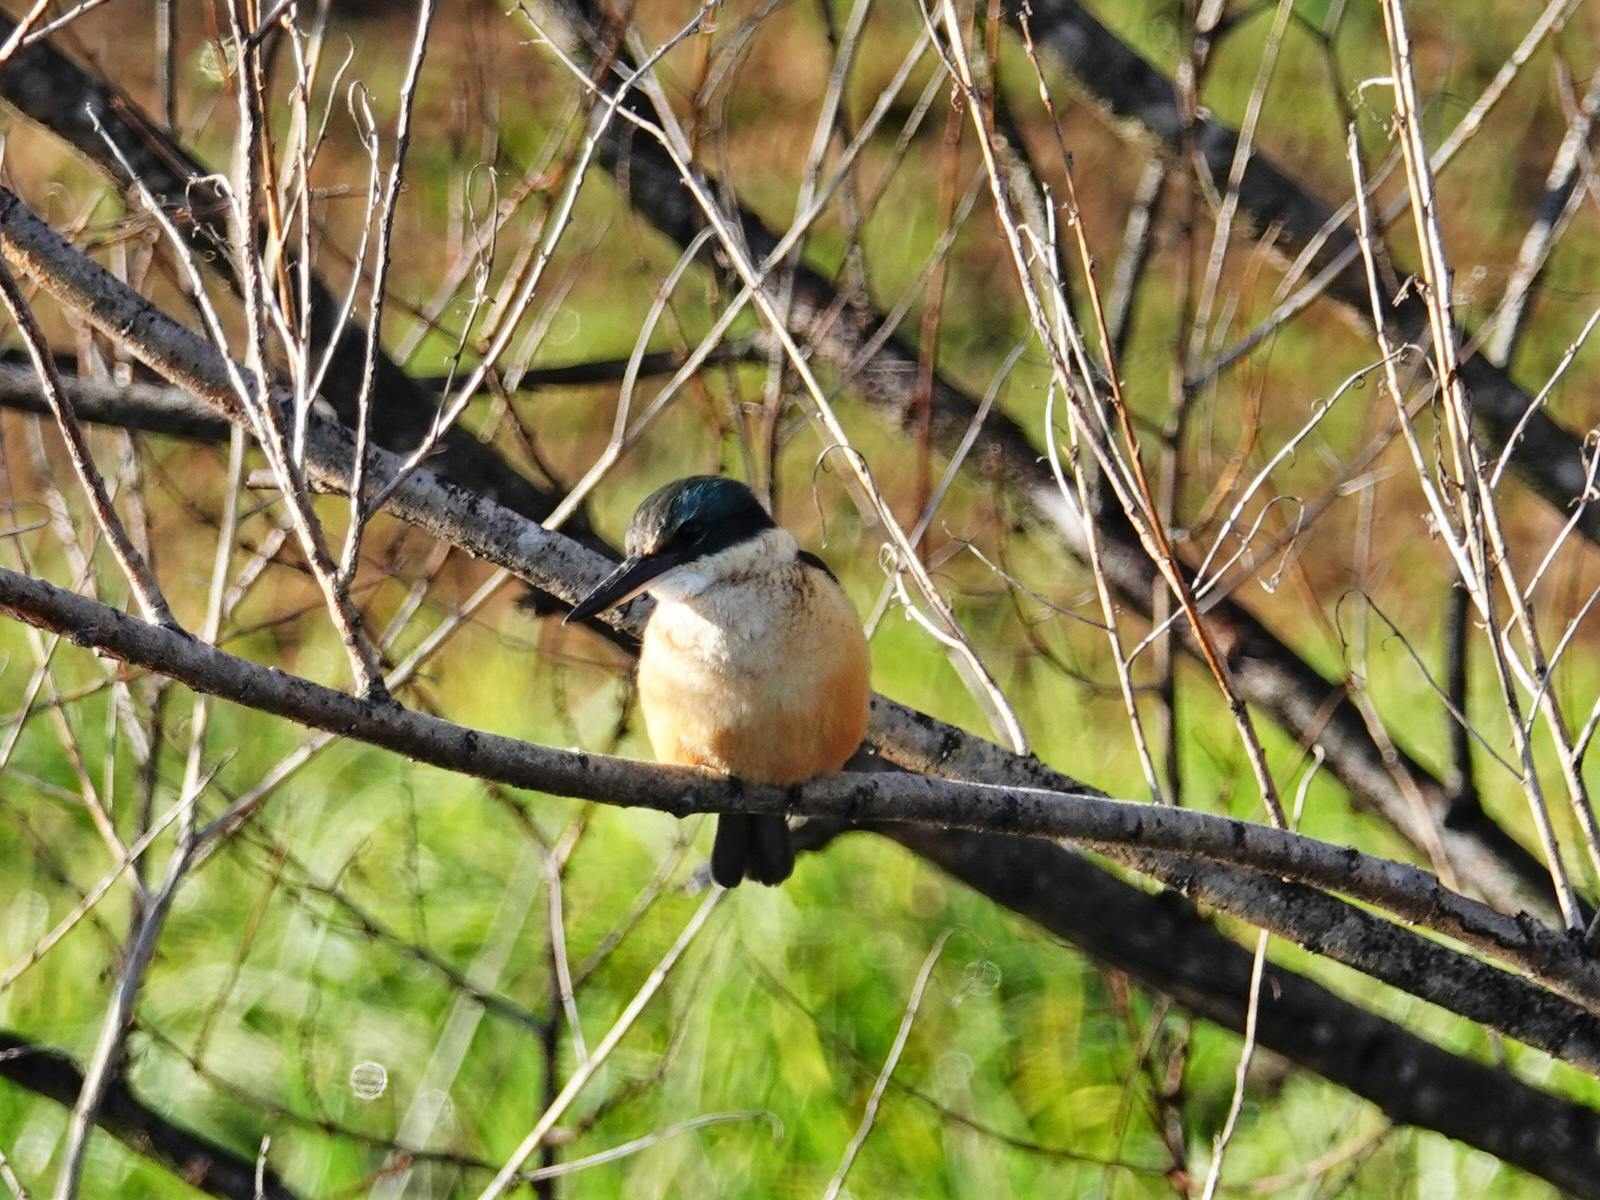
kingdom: Animalia
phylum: Chordata
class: Aves
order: Coraciiformes
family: Alcedinidae
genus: Todiramphus
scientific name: Todiramphus sanctus
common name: Sacred kingfisher
